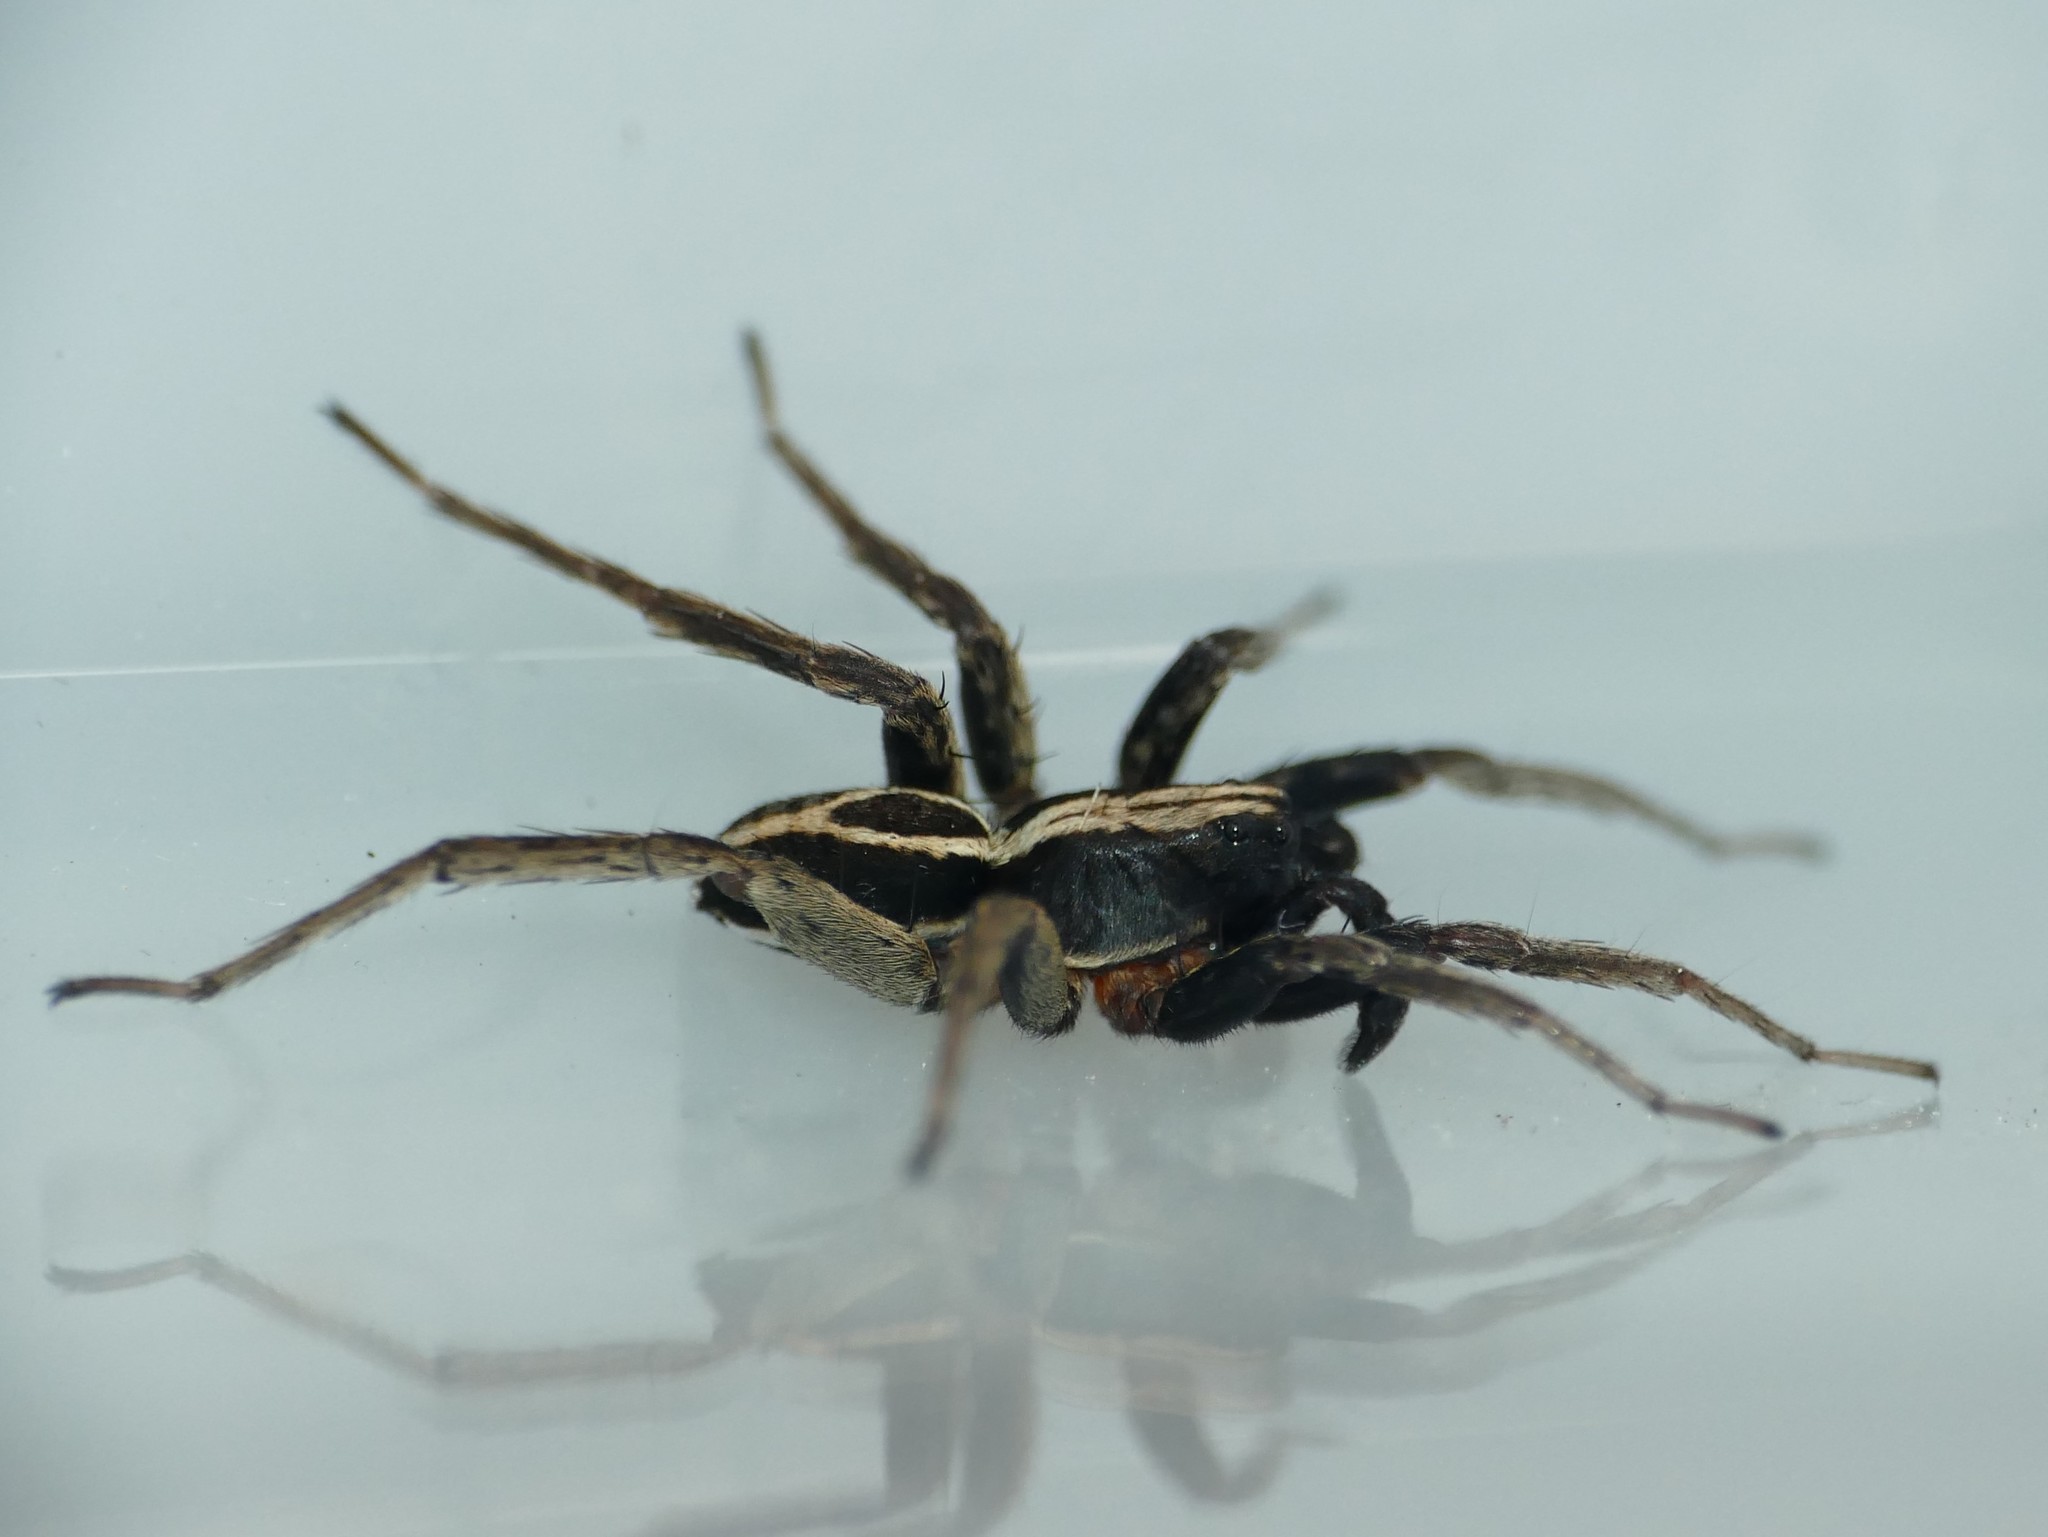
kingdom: Animalia
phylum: Arthropoda
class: Arachnida
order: Araneae
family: Lycosidae
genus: Alopecosa
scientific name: Alopecosa albofasciata
